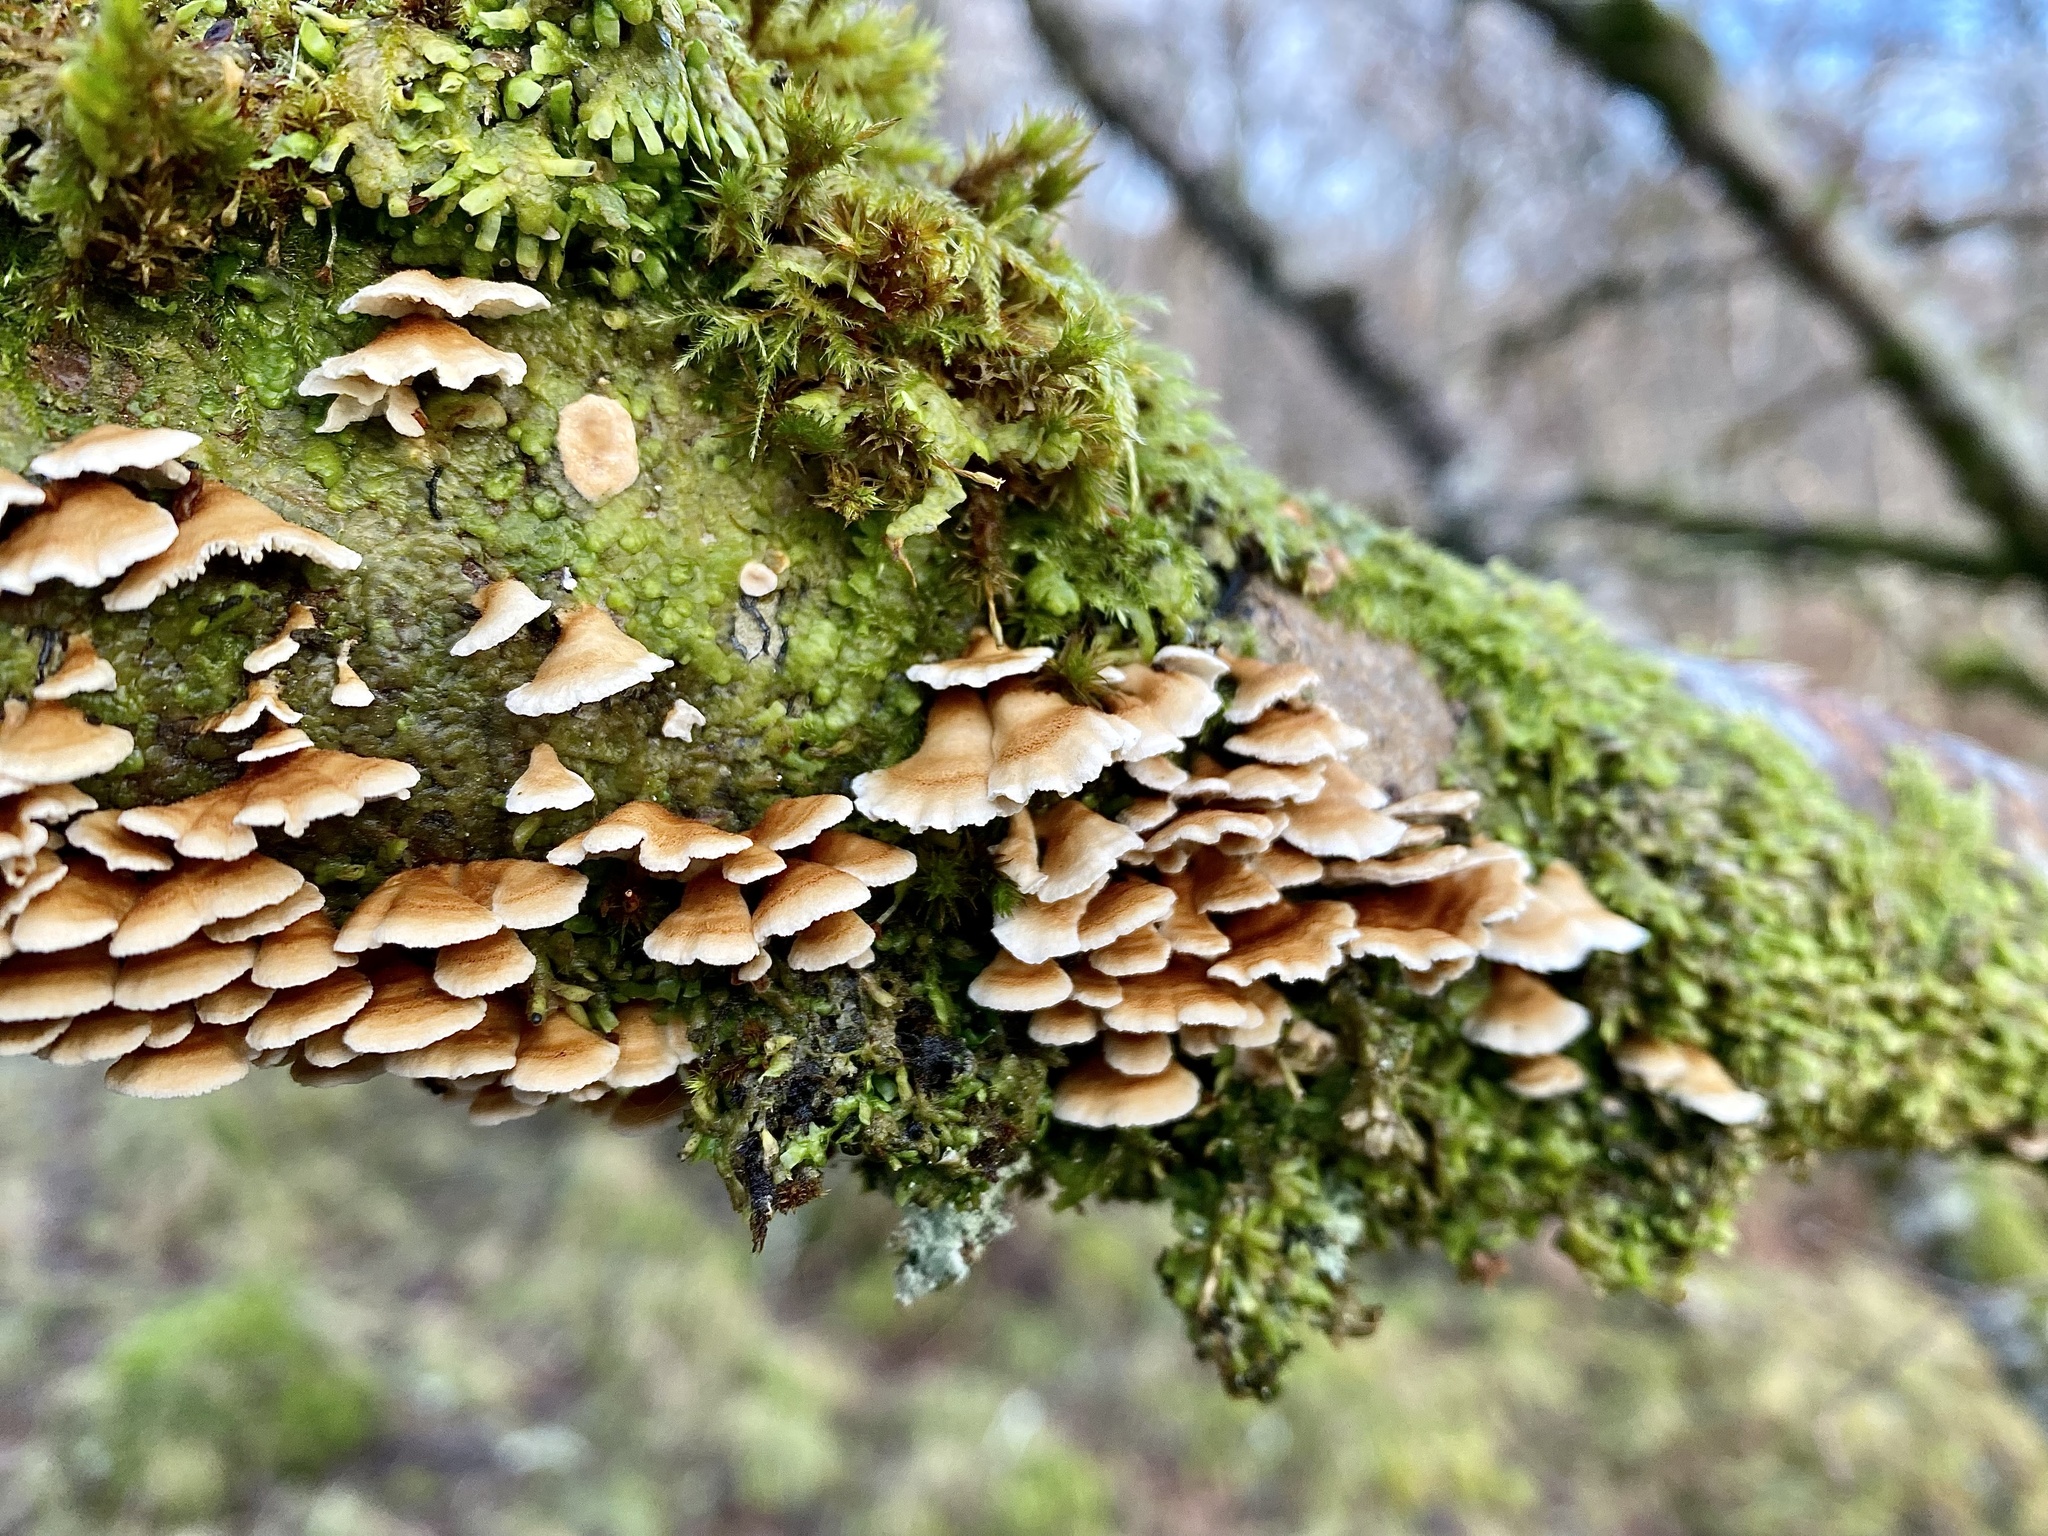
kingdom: Fungi
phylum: Basidiomycota
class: Agaricomycetes
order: Amylocorticiales
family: Amylocorticiaceae
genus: Plicaturopsis
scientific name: Plicaturopsis crispa
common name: Crimped gill
